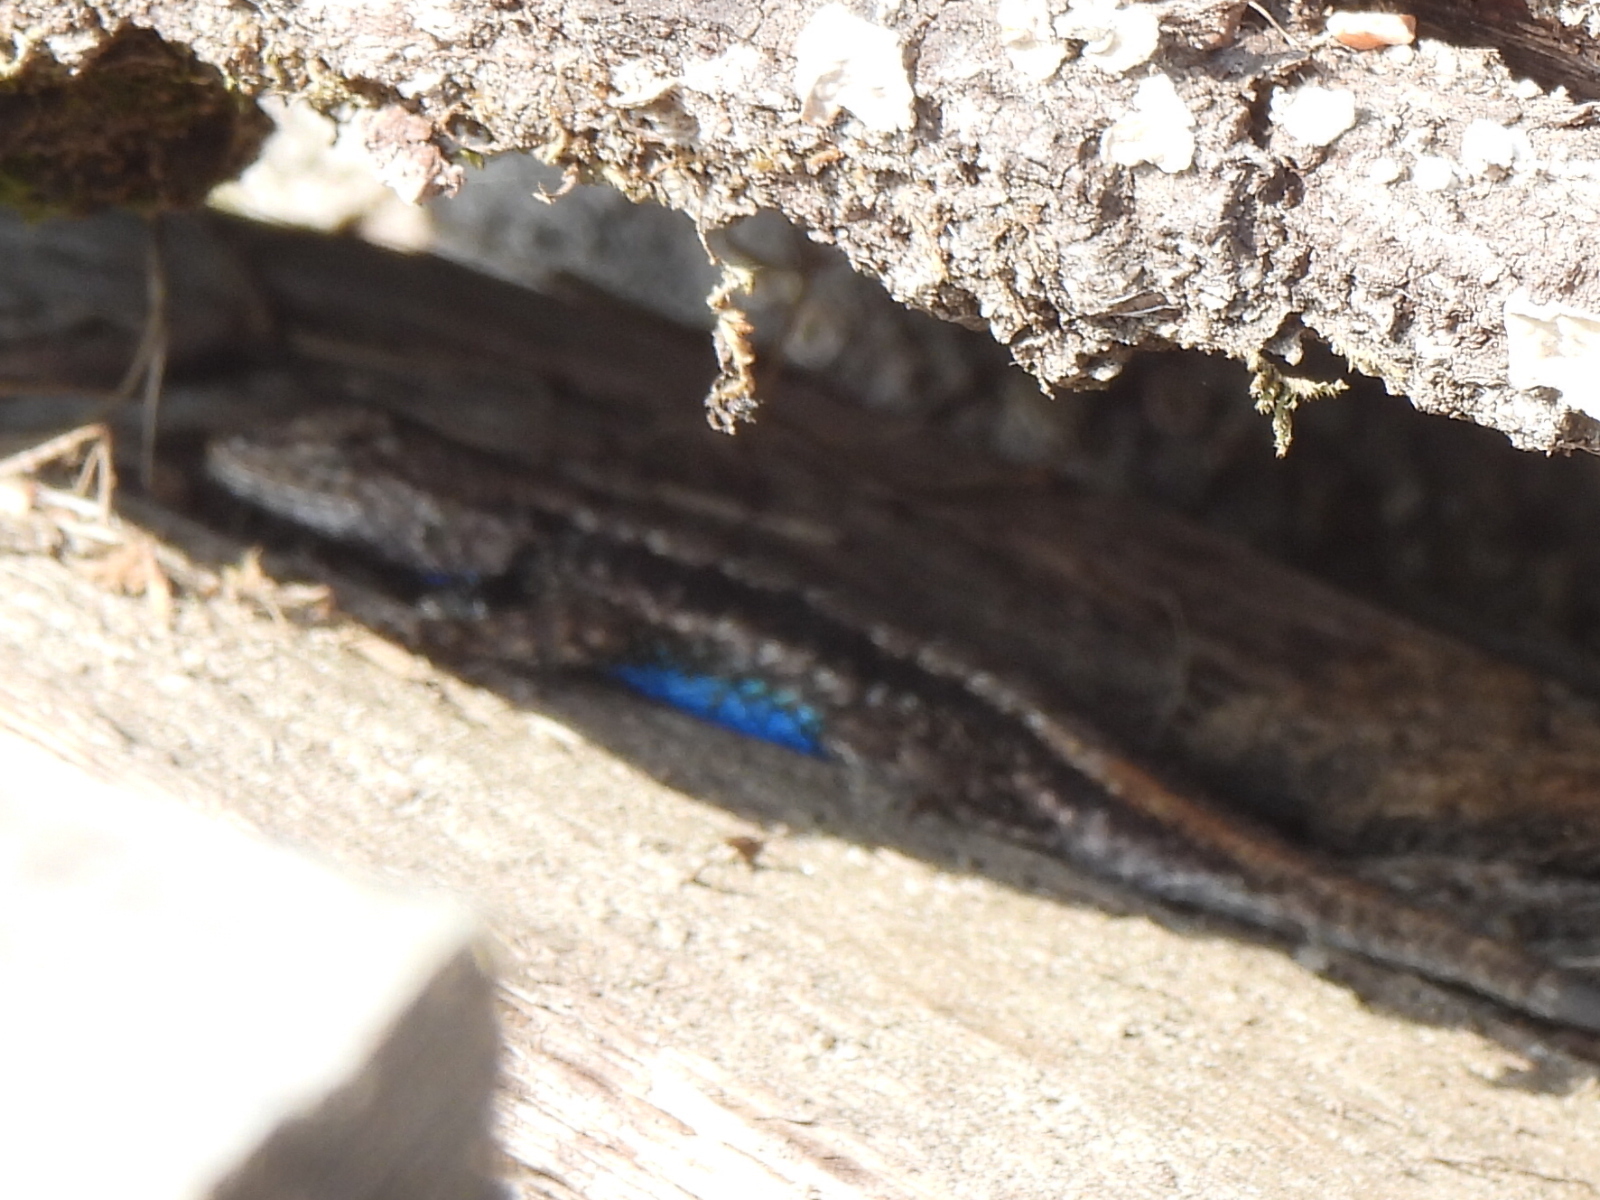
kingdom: Animalia
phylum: Chordata
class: Squamata
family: Phrynosomatidae
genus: Sceloporus
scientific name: Sceloporus consobrinus
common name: Southern prairie lizard
